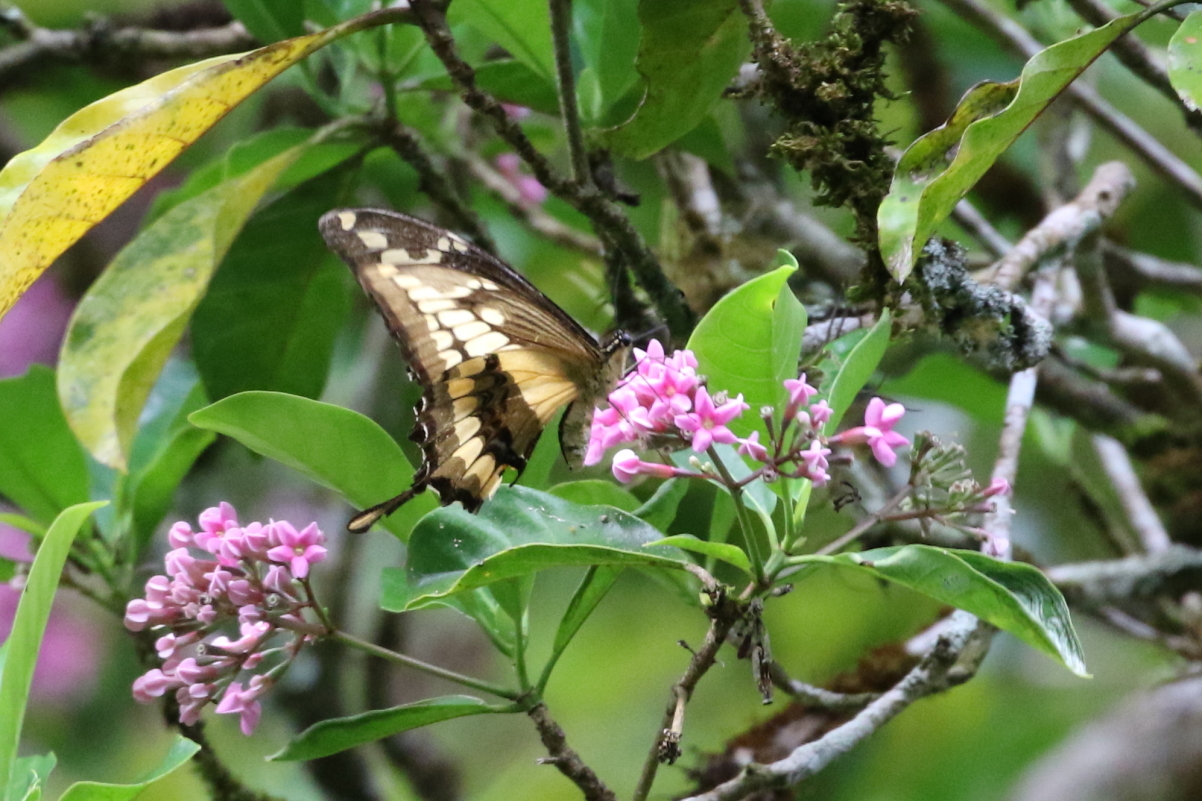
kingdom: Animalia
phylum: Arthropoda
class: Insecta
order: Lepidoptera
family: Papilionidae
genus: Papilio
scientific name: Papilio thoas
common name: King swallowtail
